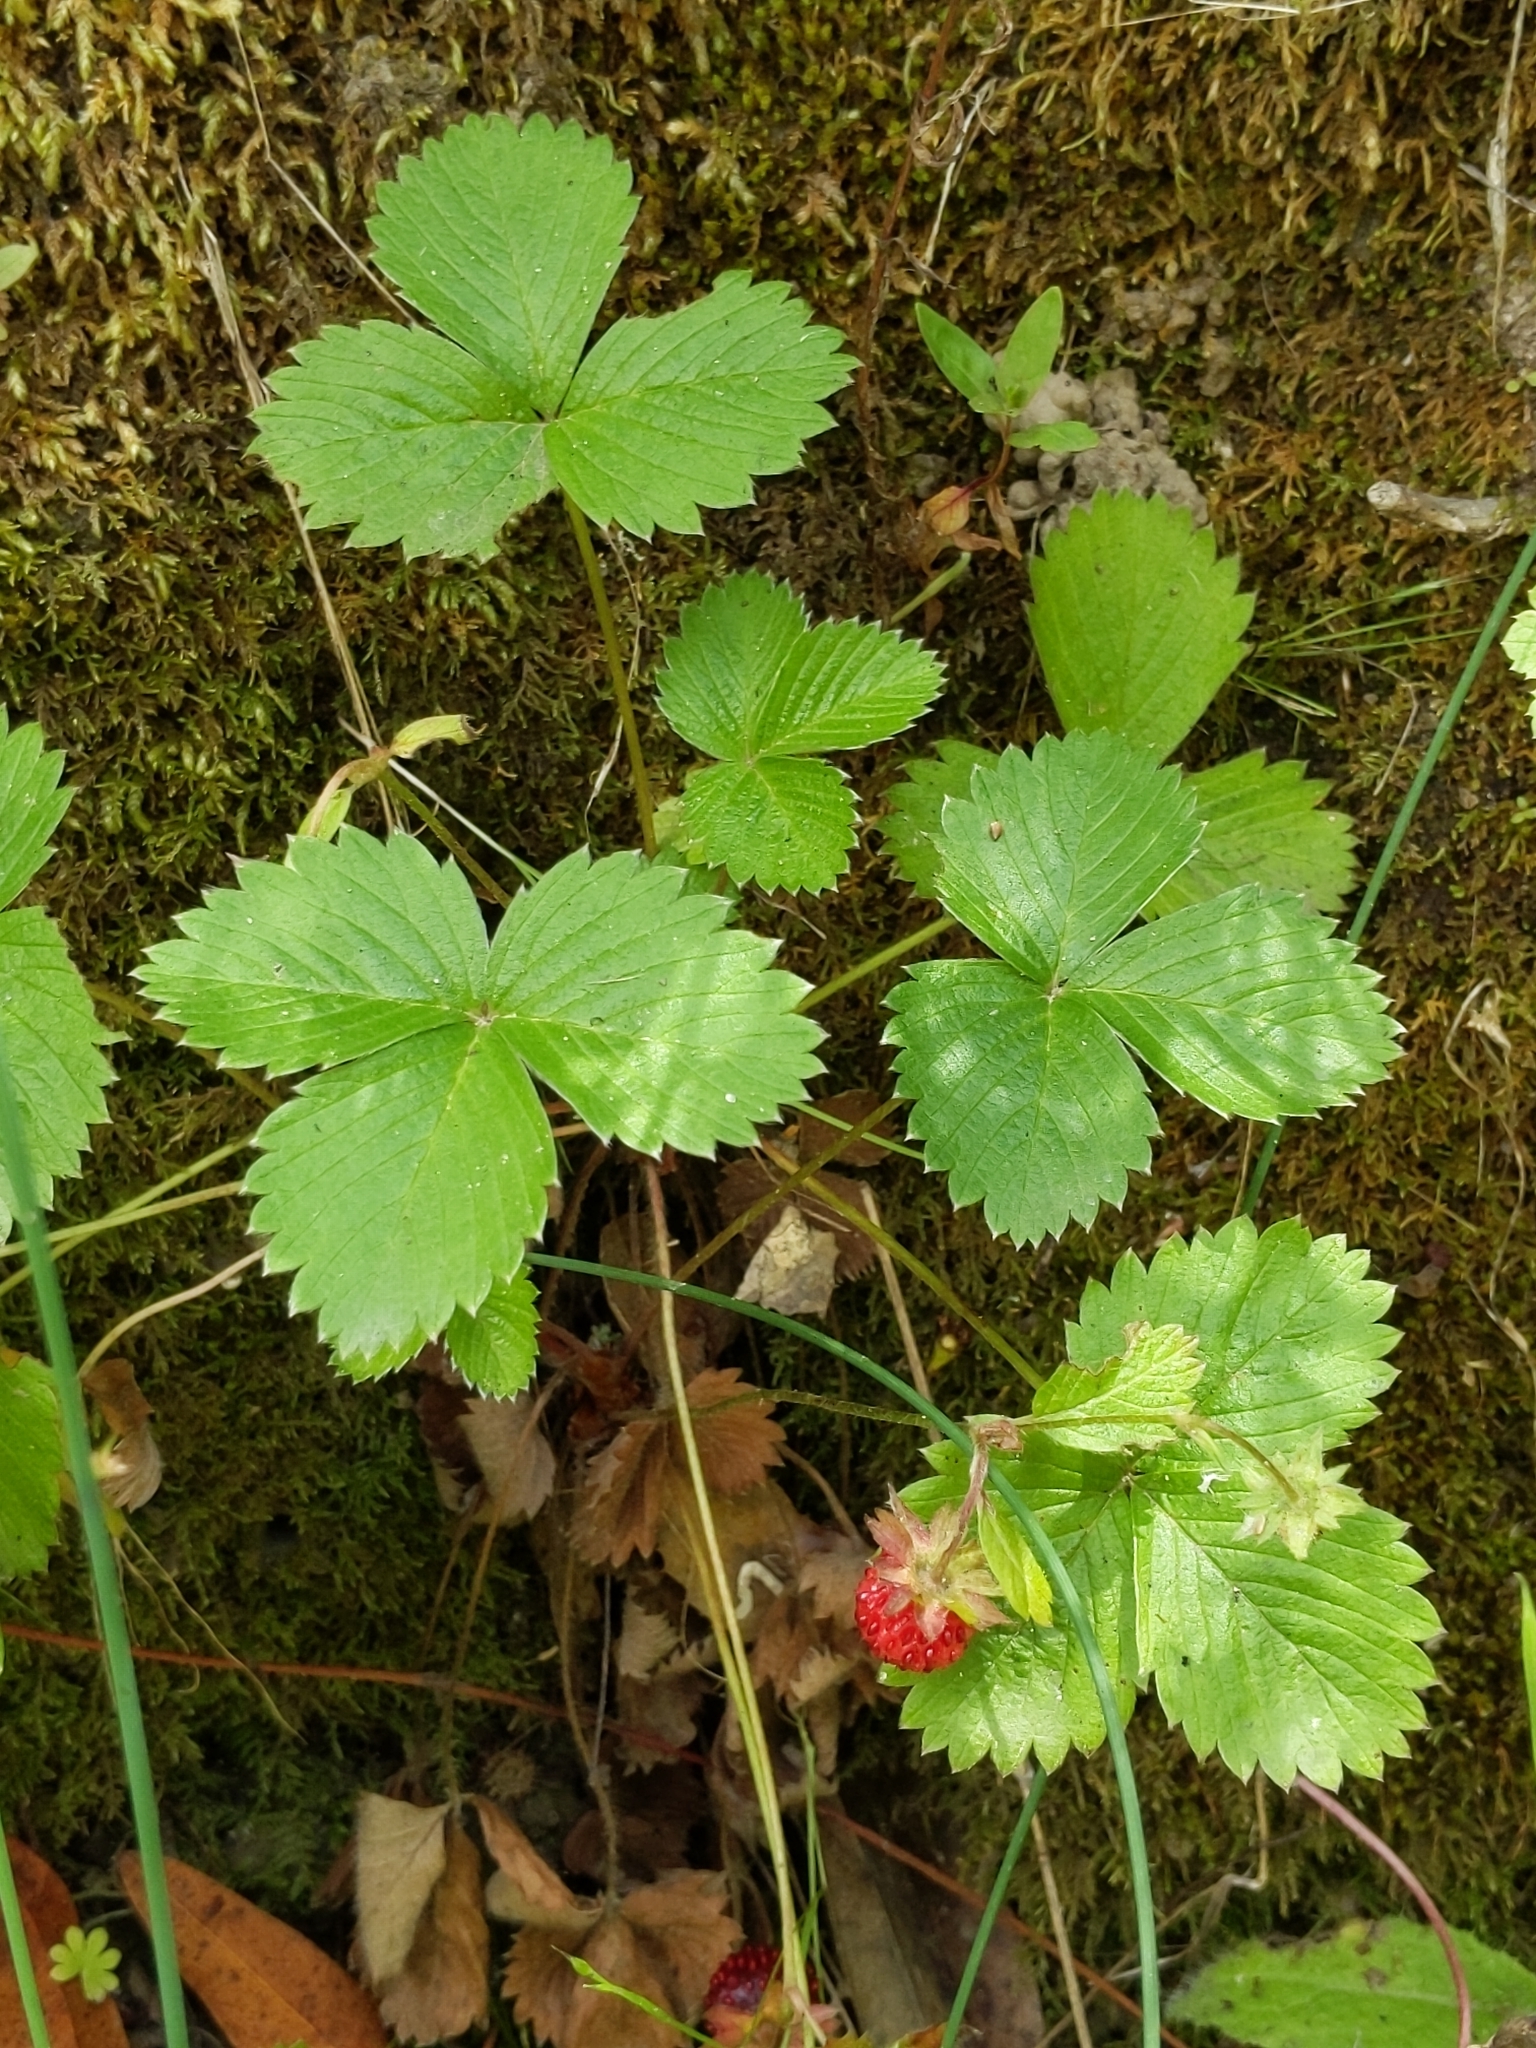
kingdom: Plantae
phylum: Tracheophyta
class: Magnoliopsida
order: Rosales
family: Rosaceae
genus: Fragaria
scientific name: Fragaria vesca
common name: Wild strawberry
